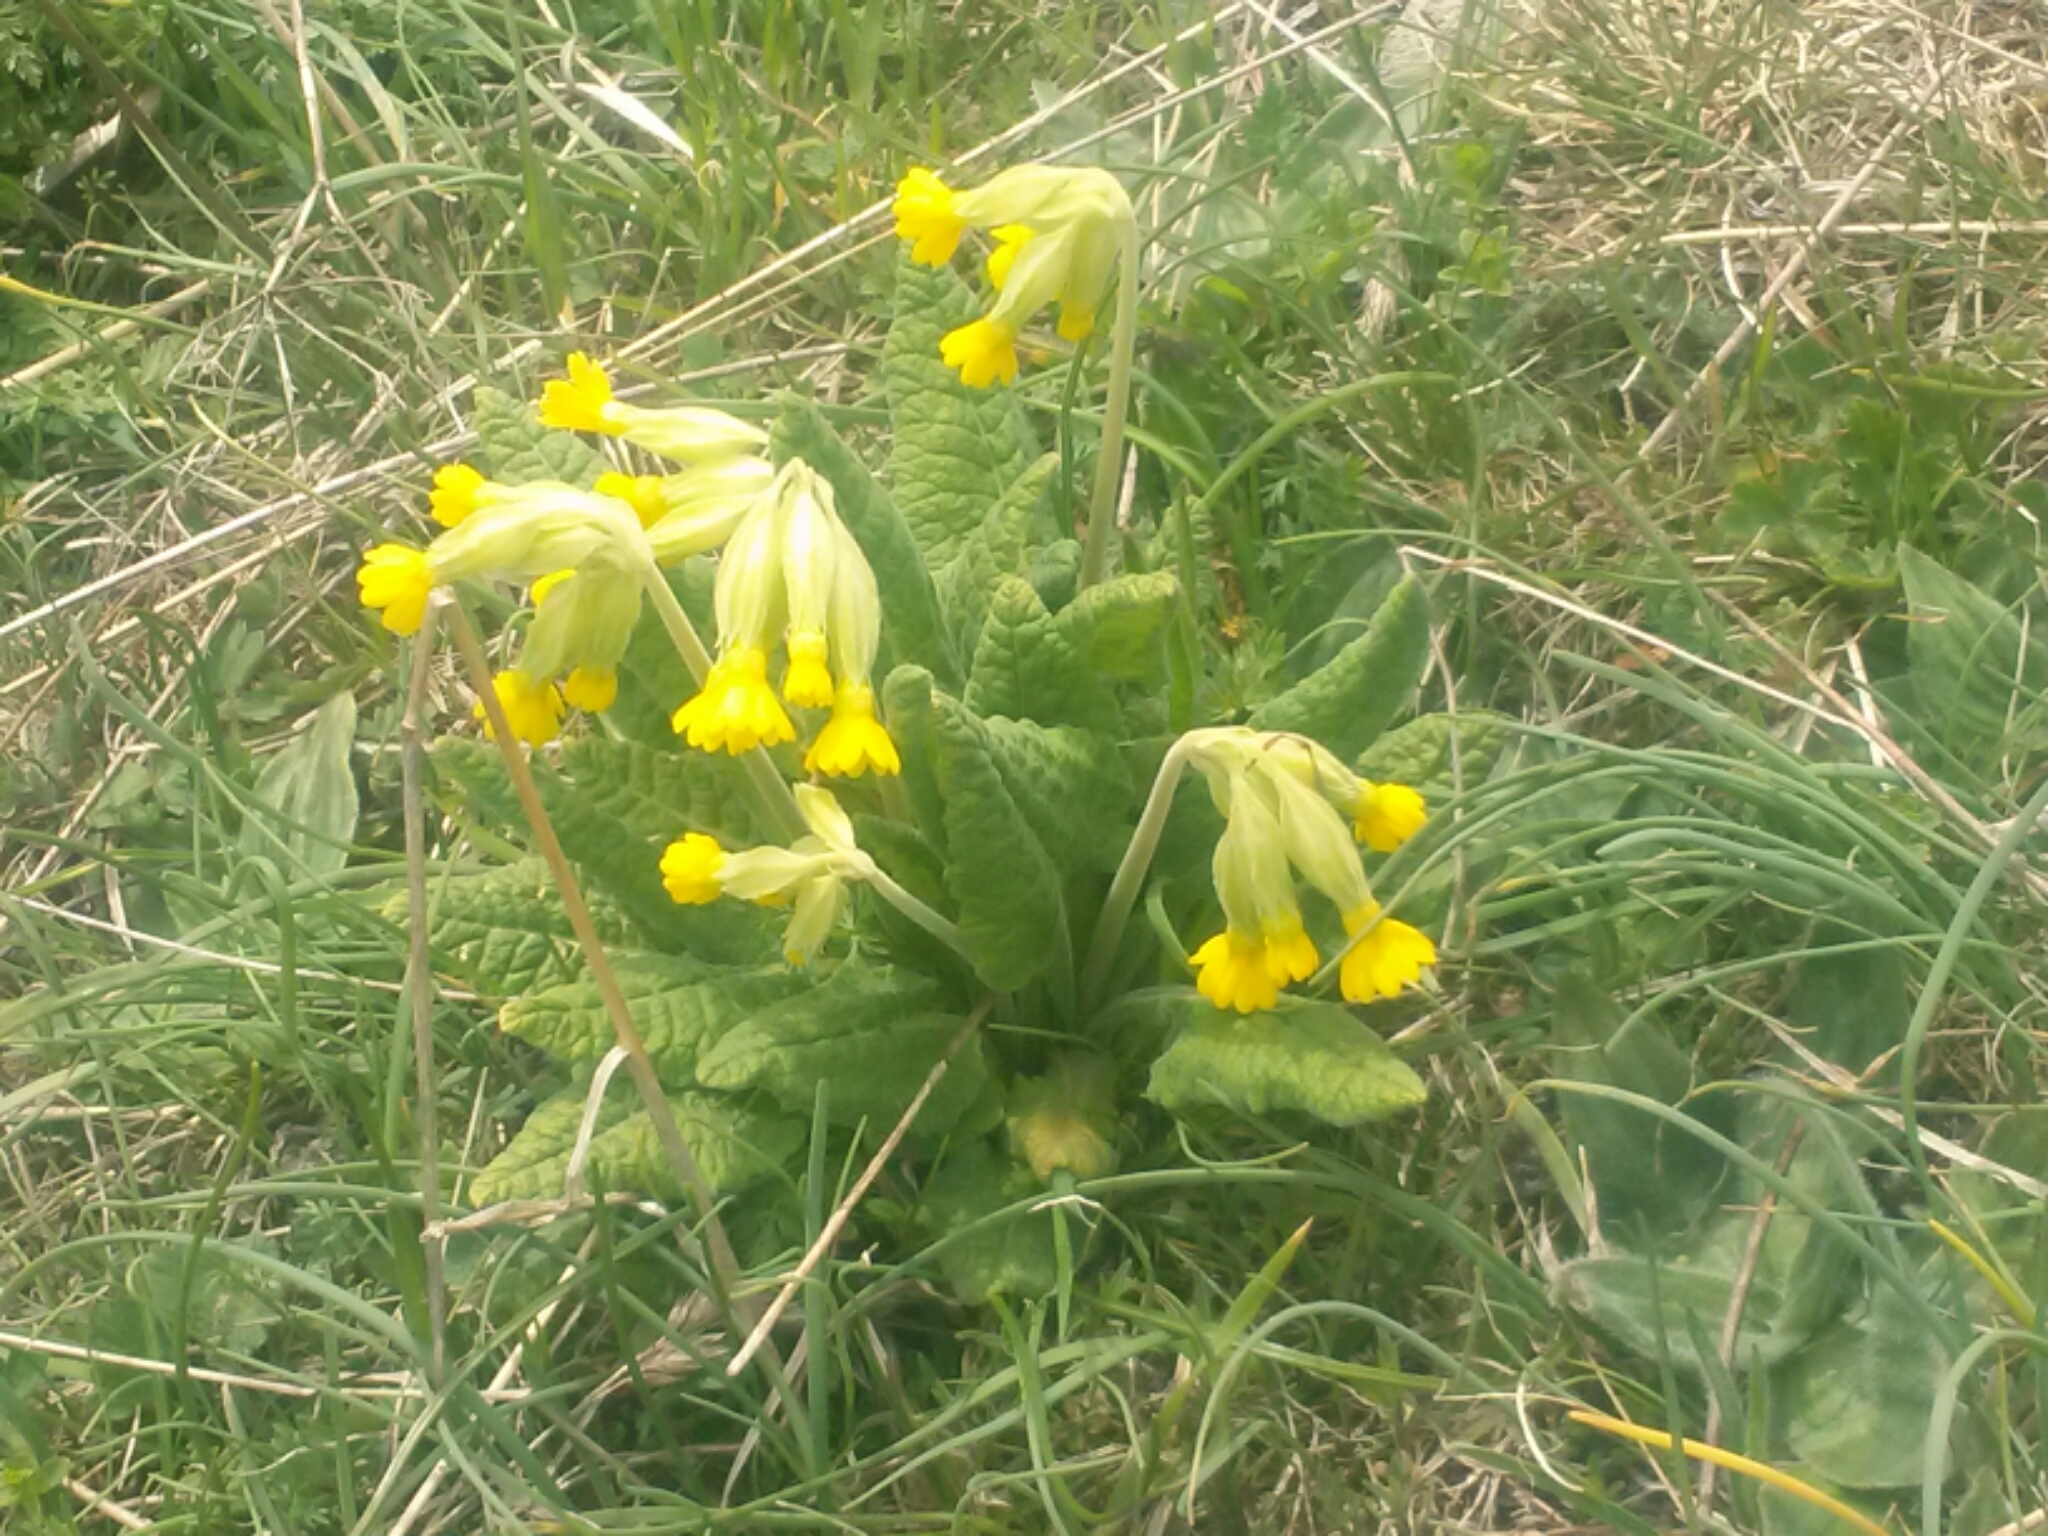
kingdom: Plantae
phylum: Tracheophyta
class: Magnoliopsida
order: Ericales
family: Primulaceae
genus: Primula
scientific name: Primula veris
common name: Cowslip
